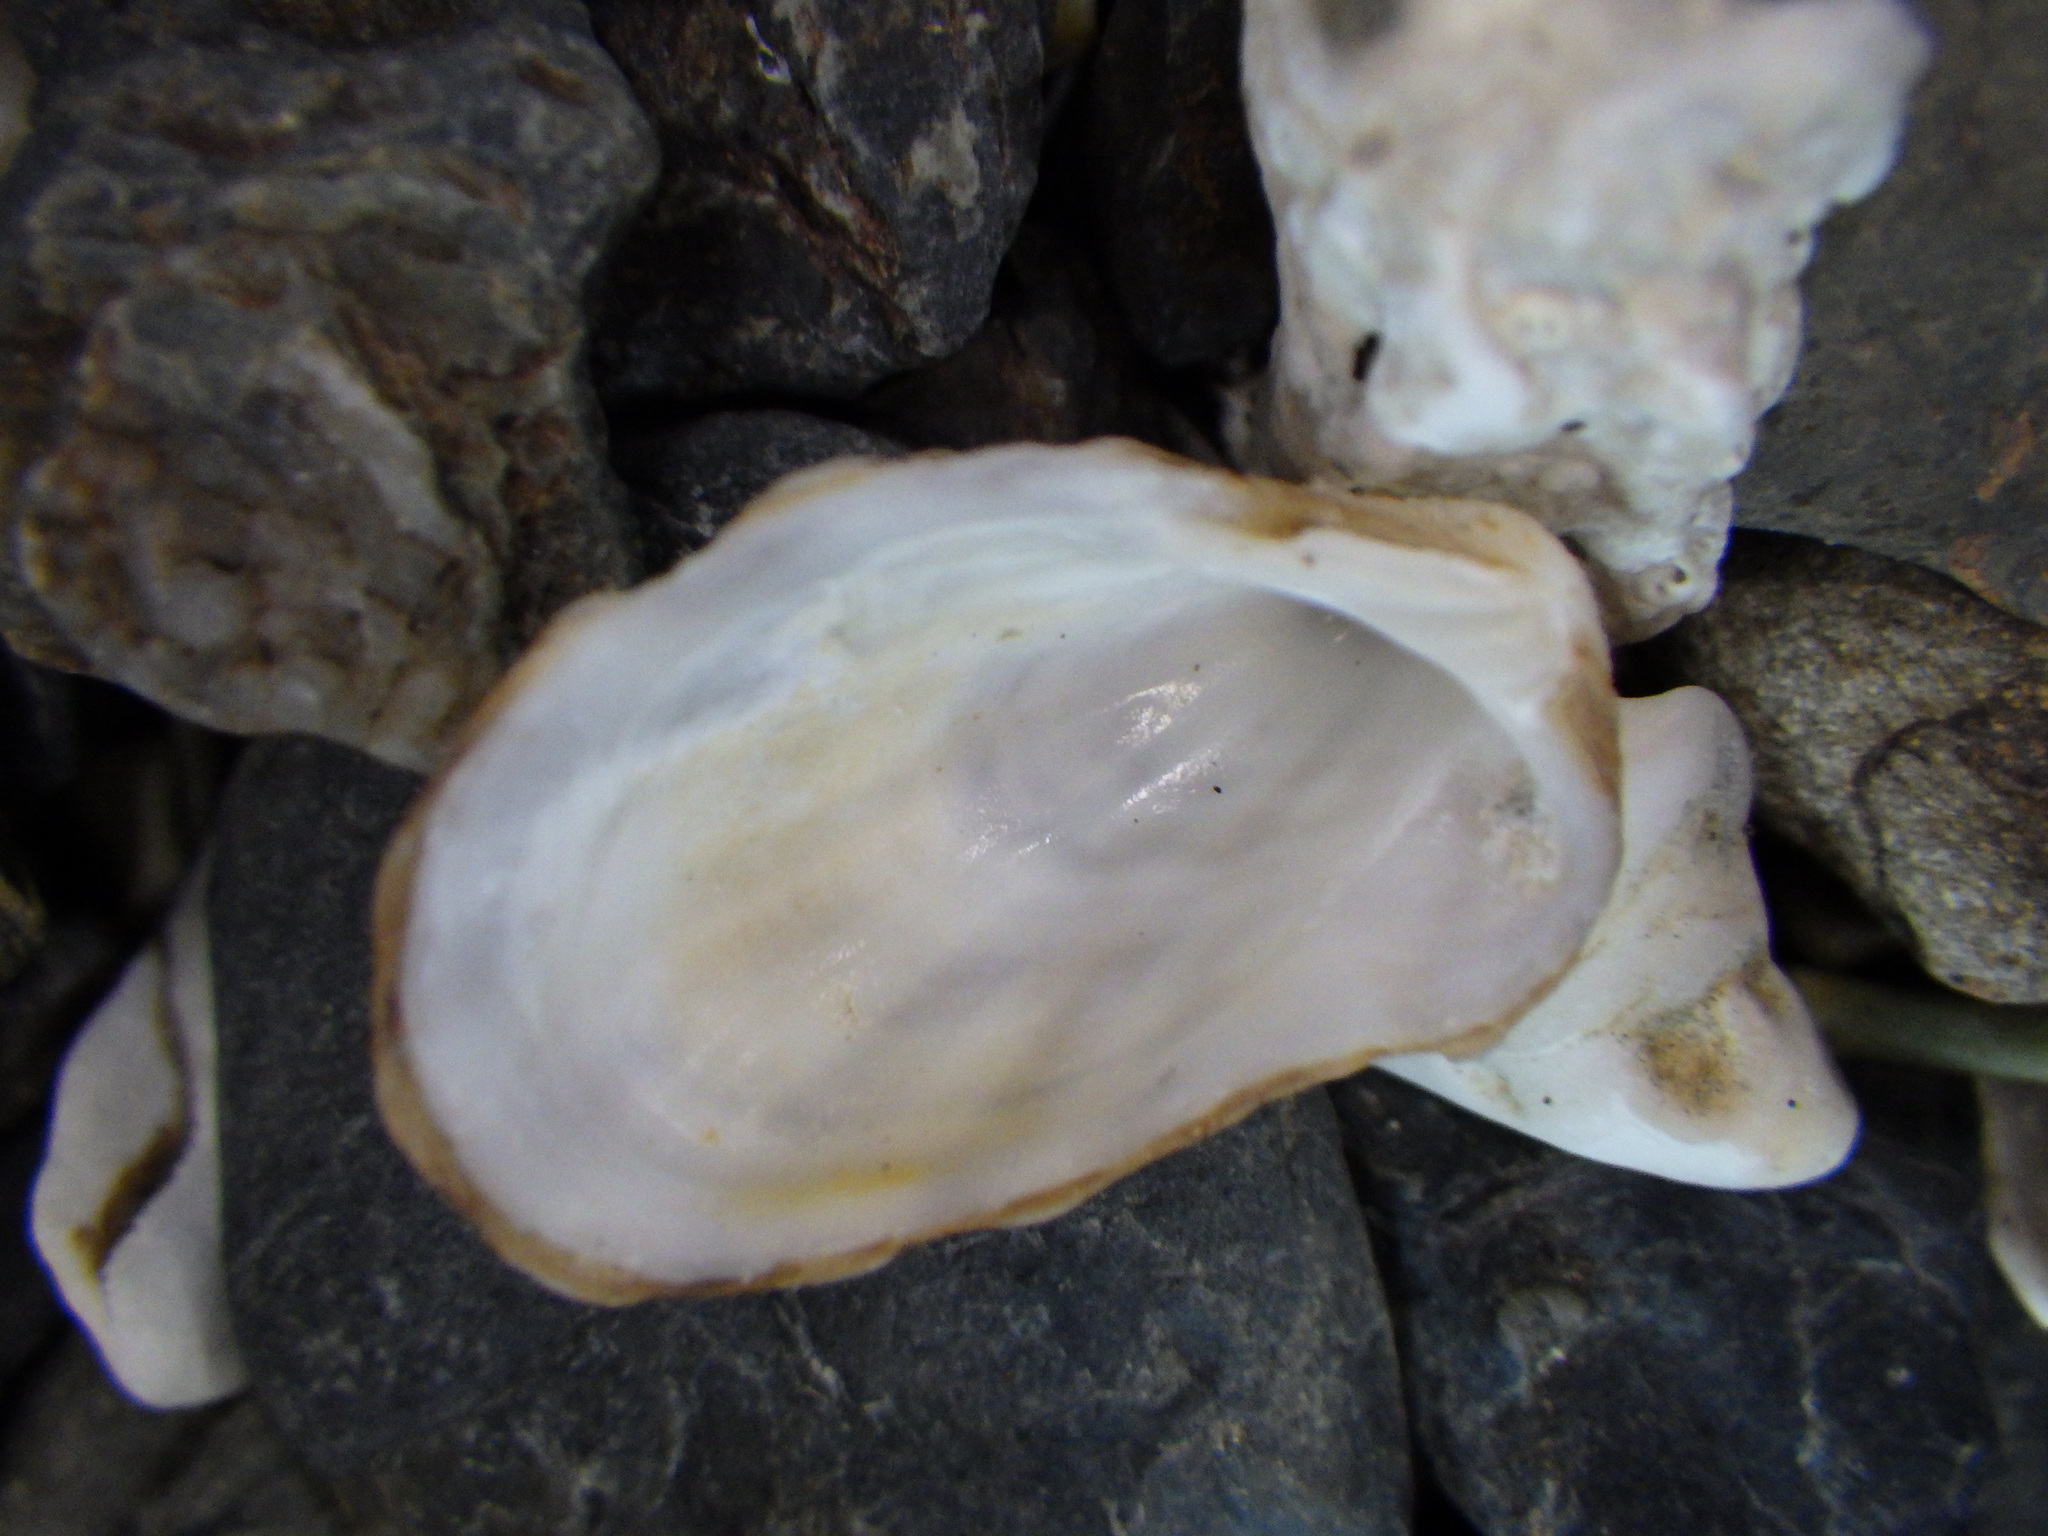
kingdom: Animalia
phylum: Mollusca
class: Bivalvia
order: Carditida
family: Carditidae
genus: Cardita
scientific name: Cardita distorta
